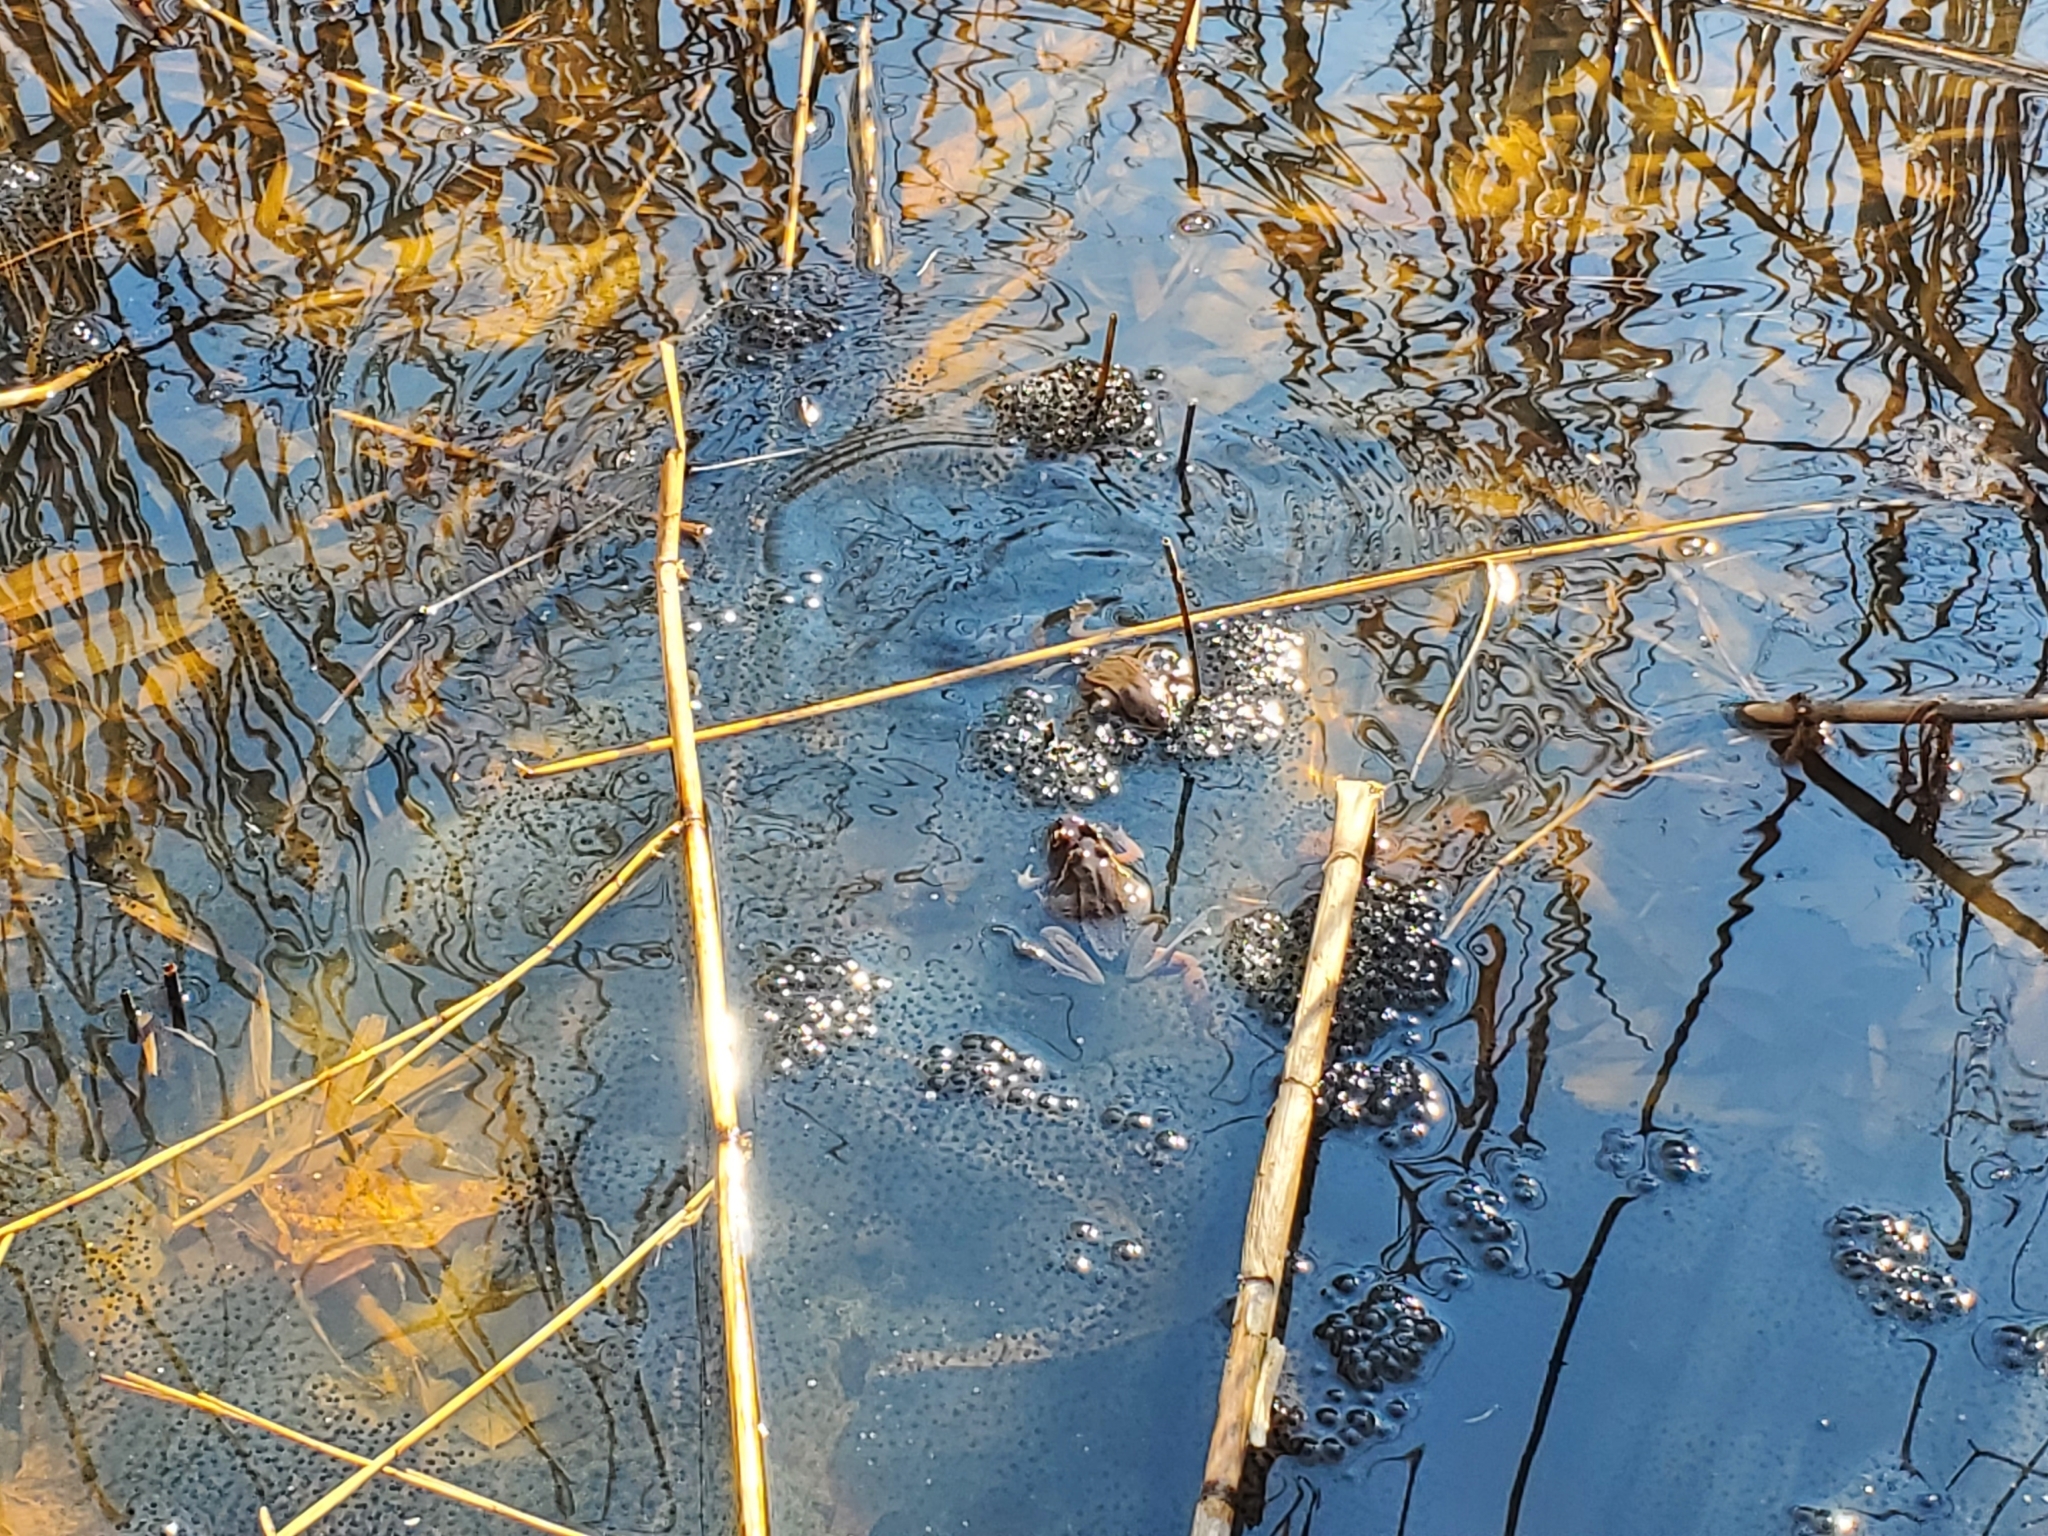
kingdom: Animalia
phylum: Chordata
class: Amphibia
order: Anura
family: Ranidae
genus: Lithobates
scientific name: Lithobates sylvaticus
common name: Wood frog
